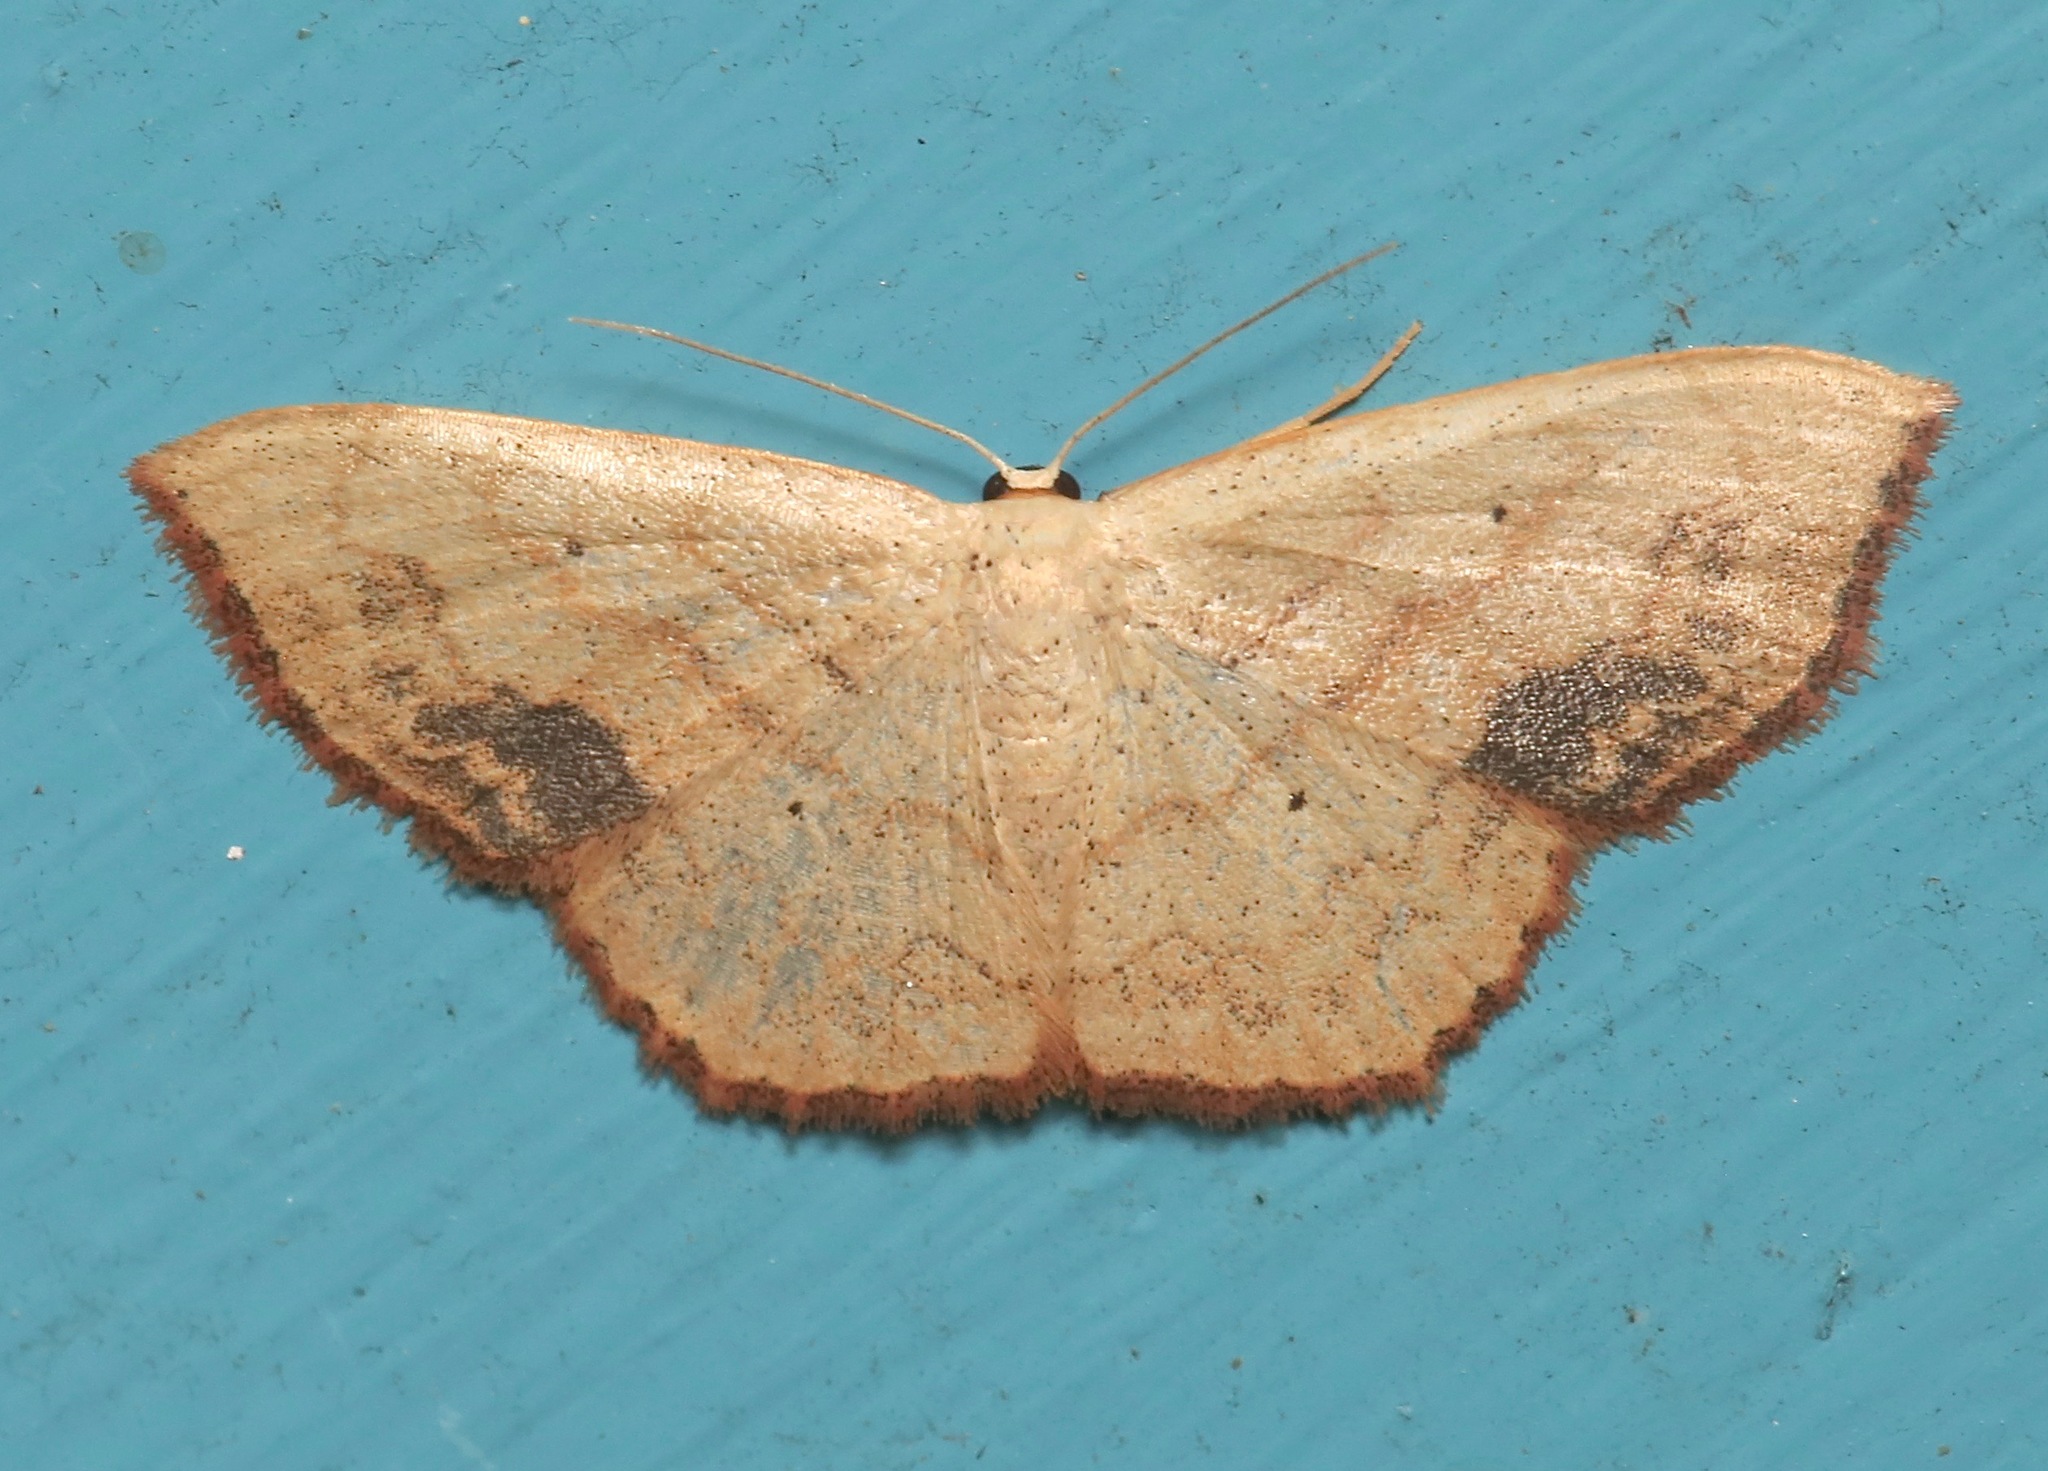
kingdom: Animalia
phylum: Arthropoda
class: Insecta
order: Lepidoptera
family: Geometridae
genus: Scopula
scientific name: Scopula timandrata
